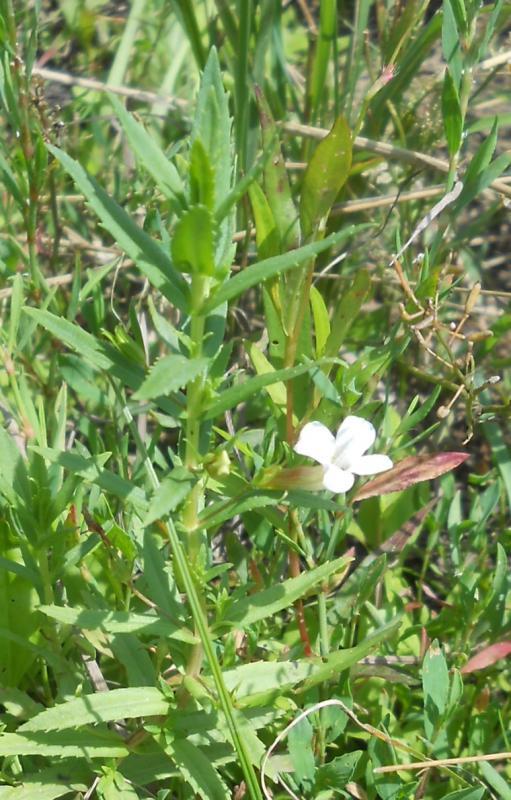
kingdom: Plantae
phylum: Tracheophyta
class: Magnoliopsida
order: Lamiales
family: Plantaginaceae
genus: Gratiola
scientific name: Gratiola officinalis
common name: Gratiola
